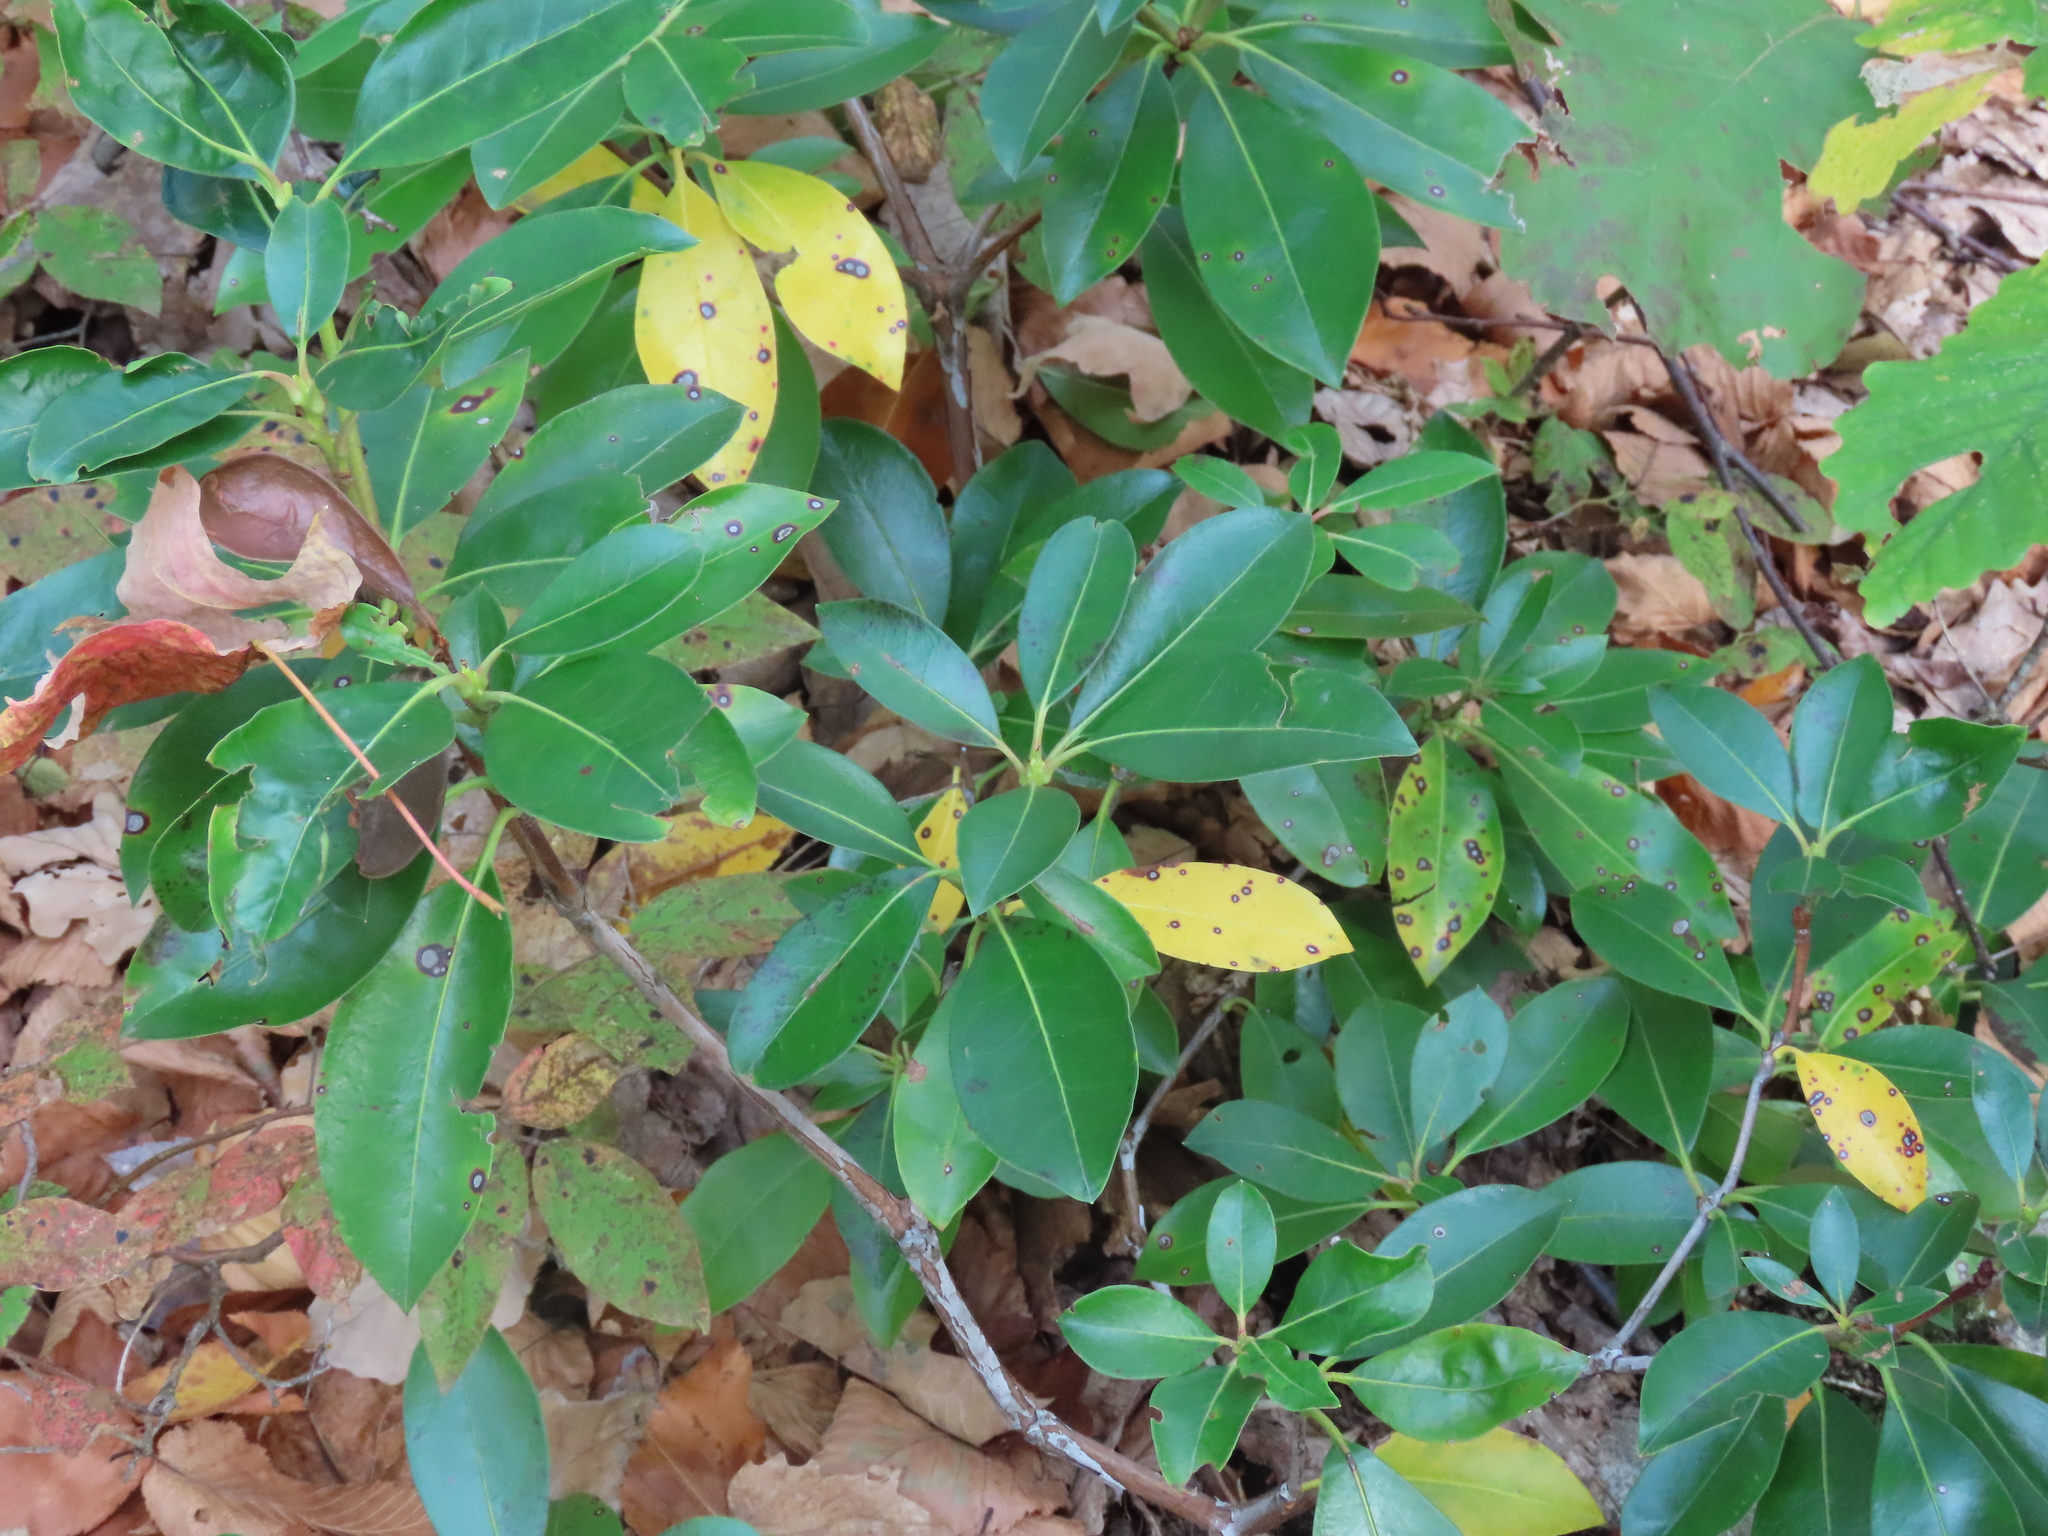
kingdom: Plantae
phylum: Tracheophyta
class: Magnoliopsida
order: Ericales
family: Ericaceae
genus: Kalmia
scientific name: Kalmia latifolia
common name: Mountain-laurel
